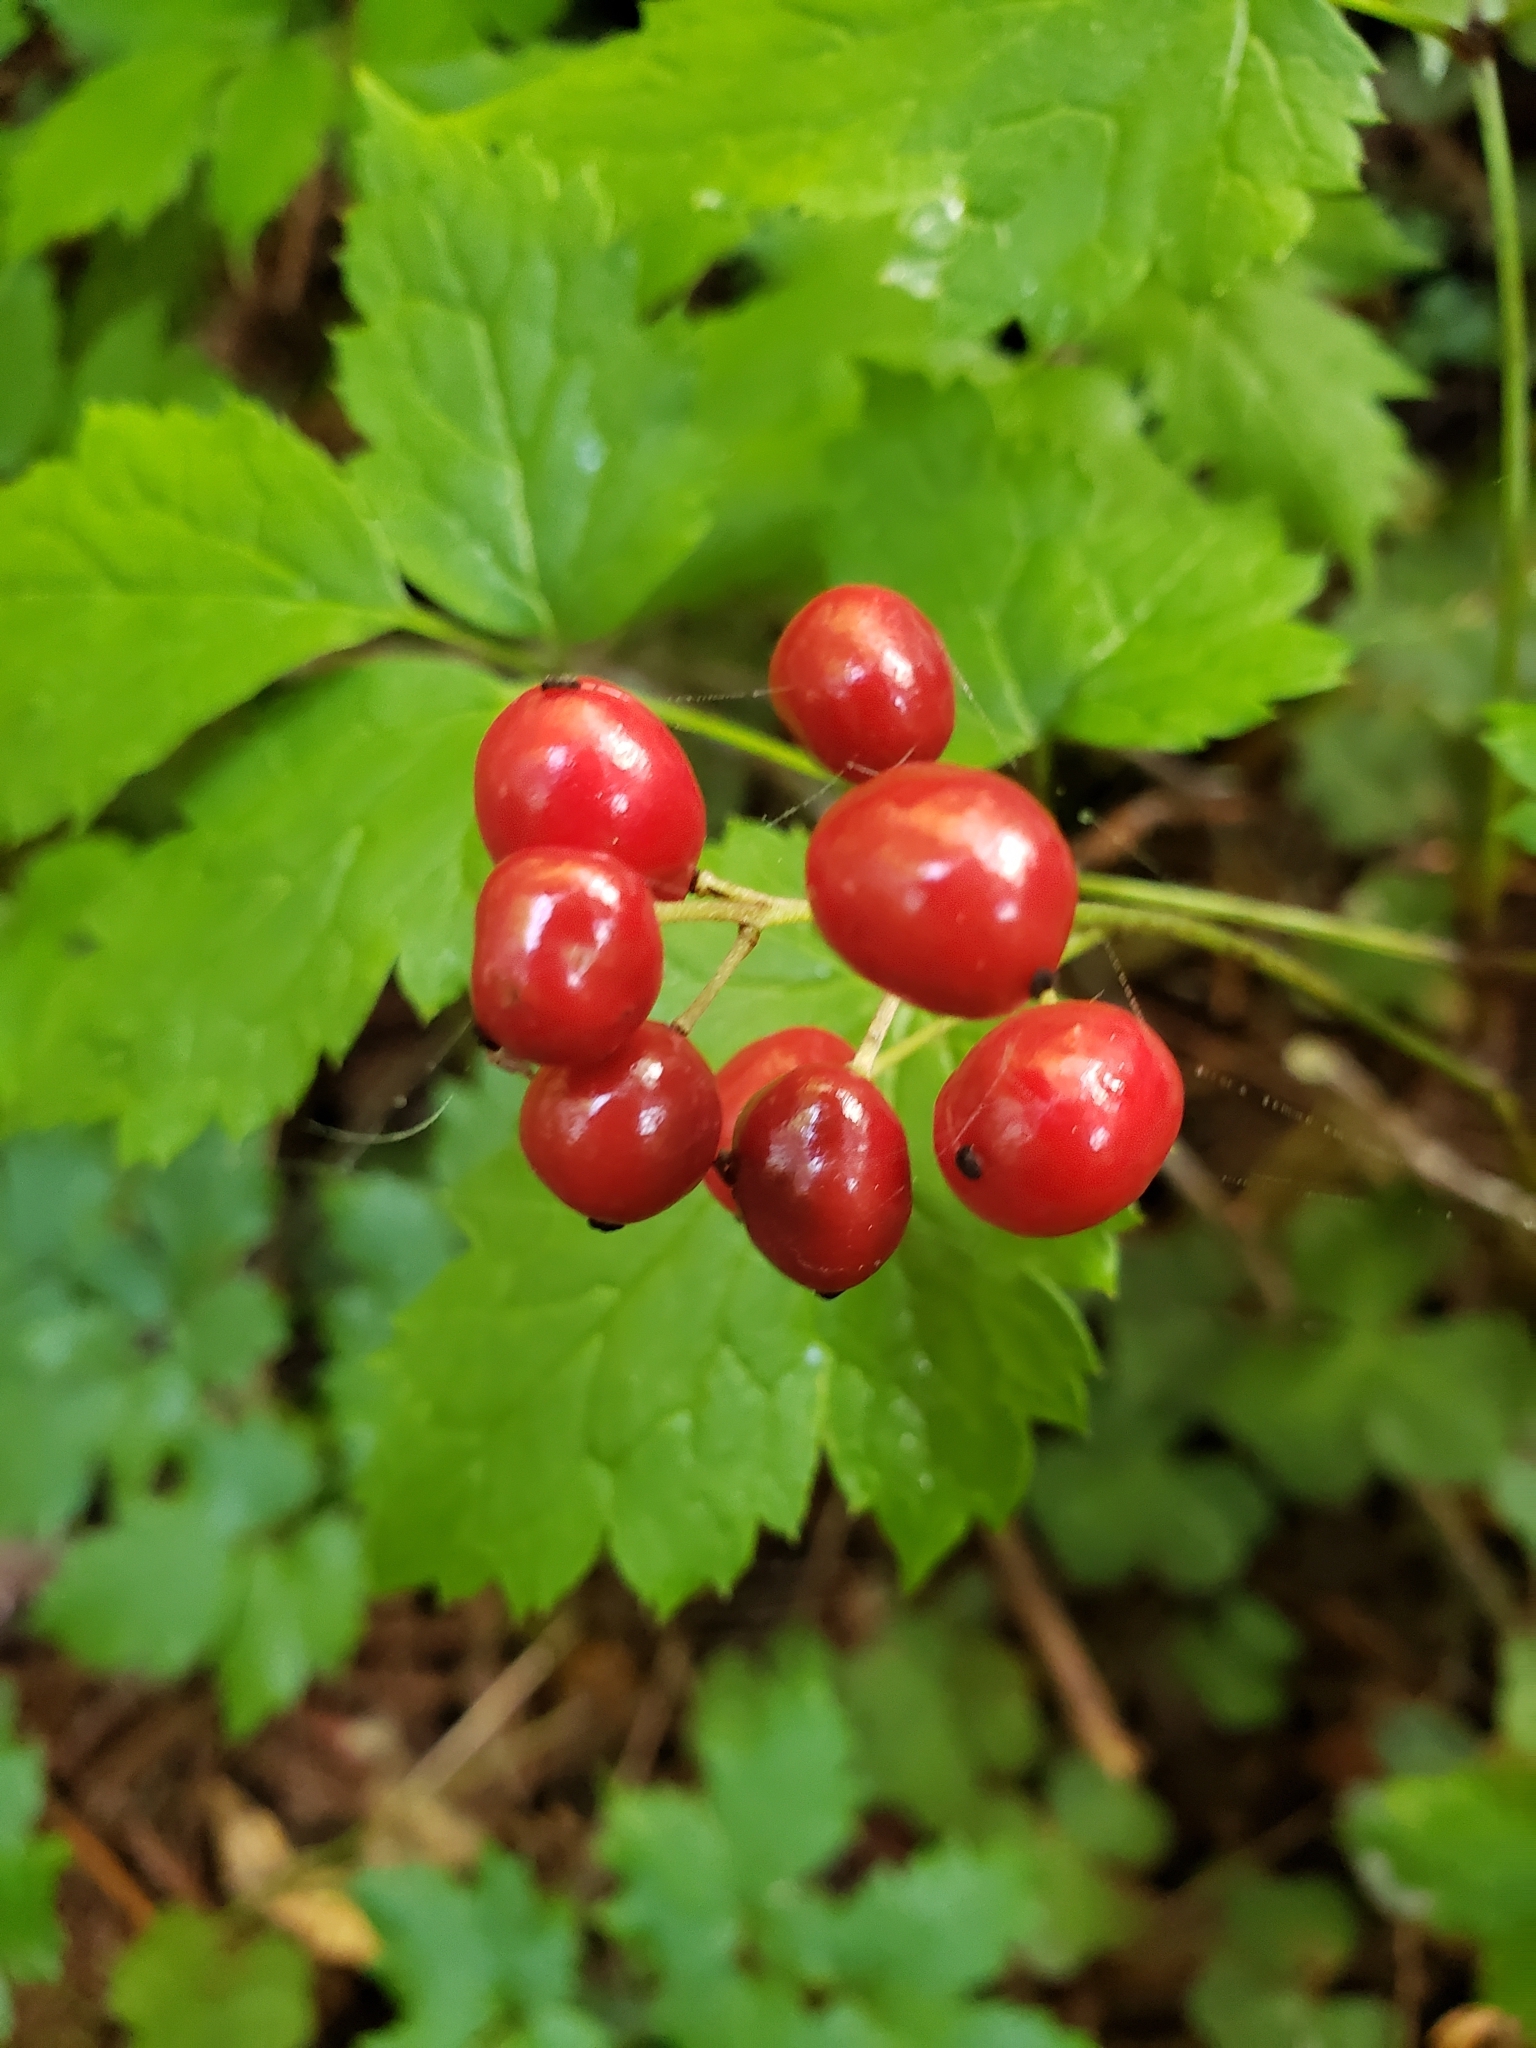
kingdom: Plantae
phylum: Tracheophyta
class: Magnoliopsida
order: Ranunculales
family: Ranunculaceae
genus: Actaea
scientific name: Actaea rubra
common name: Red baneberry
